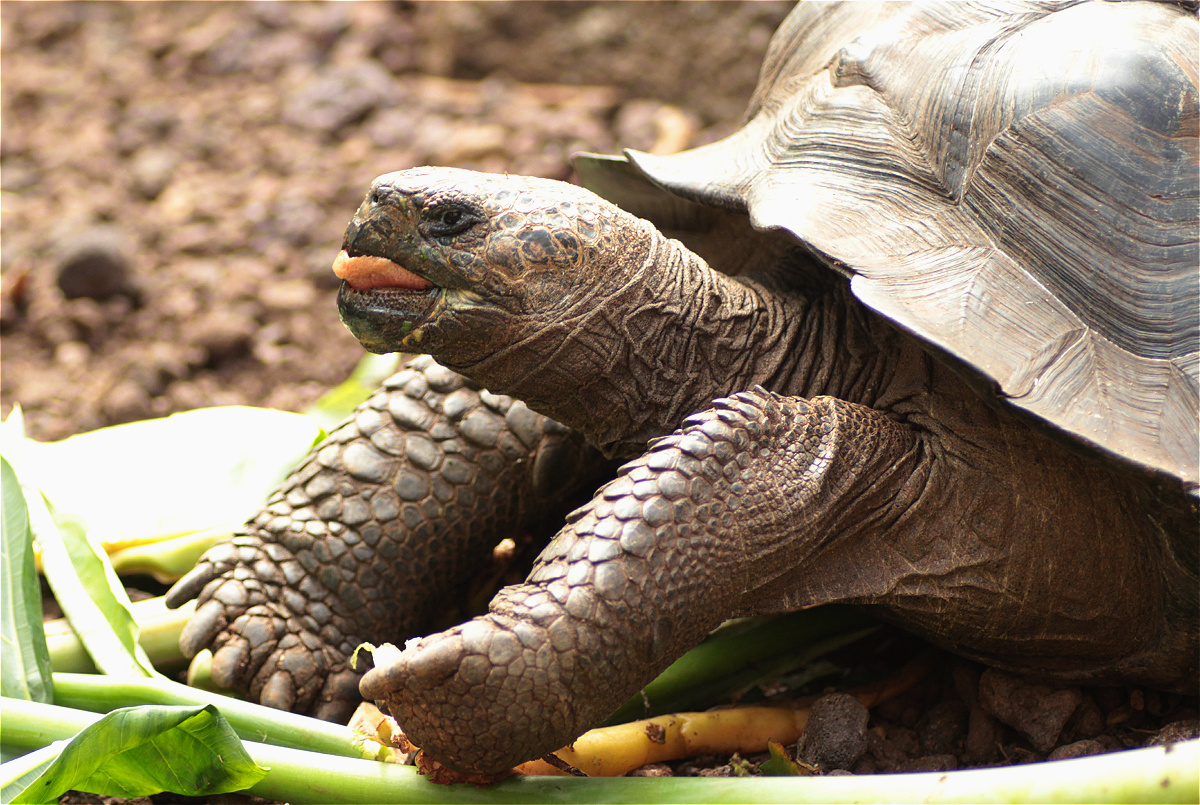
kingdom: Animalia
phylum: Chordata
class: Testudines
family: Testudinidae
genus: Chelonoidis
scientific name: Chelonoidis chathamensis
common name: Chatham island giant tortoise
